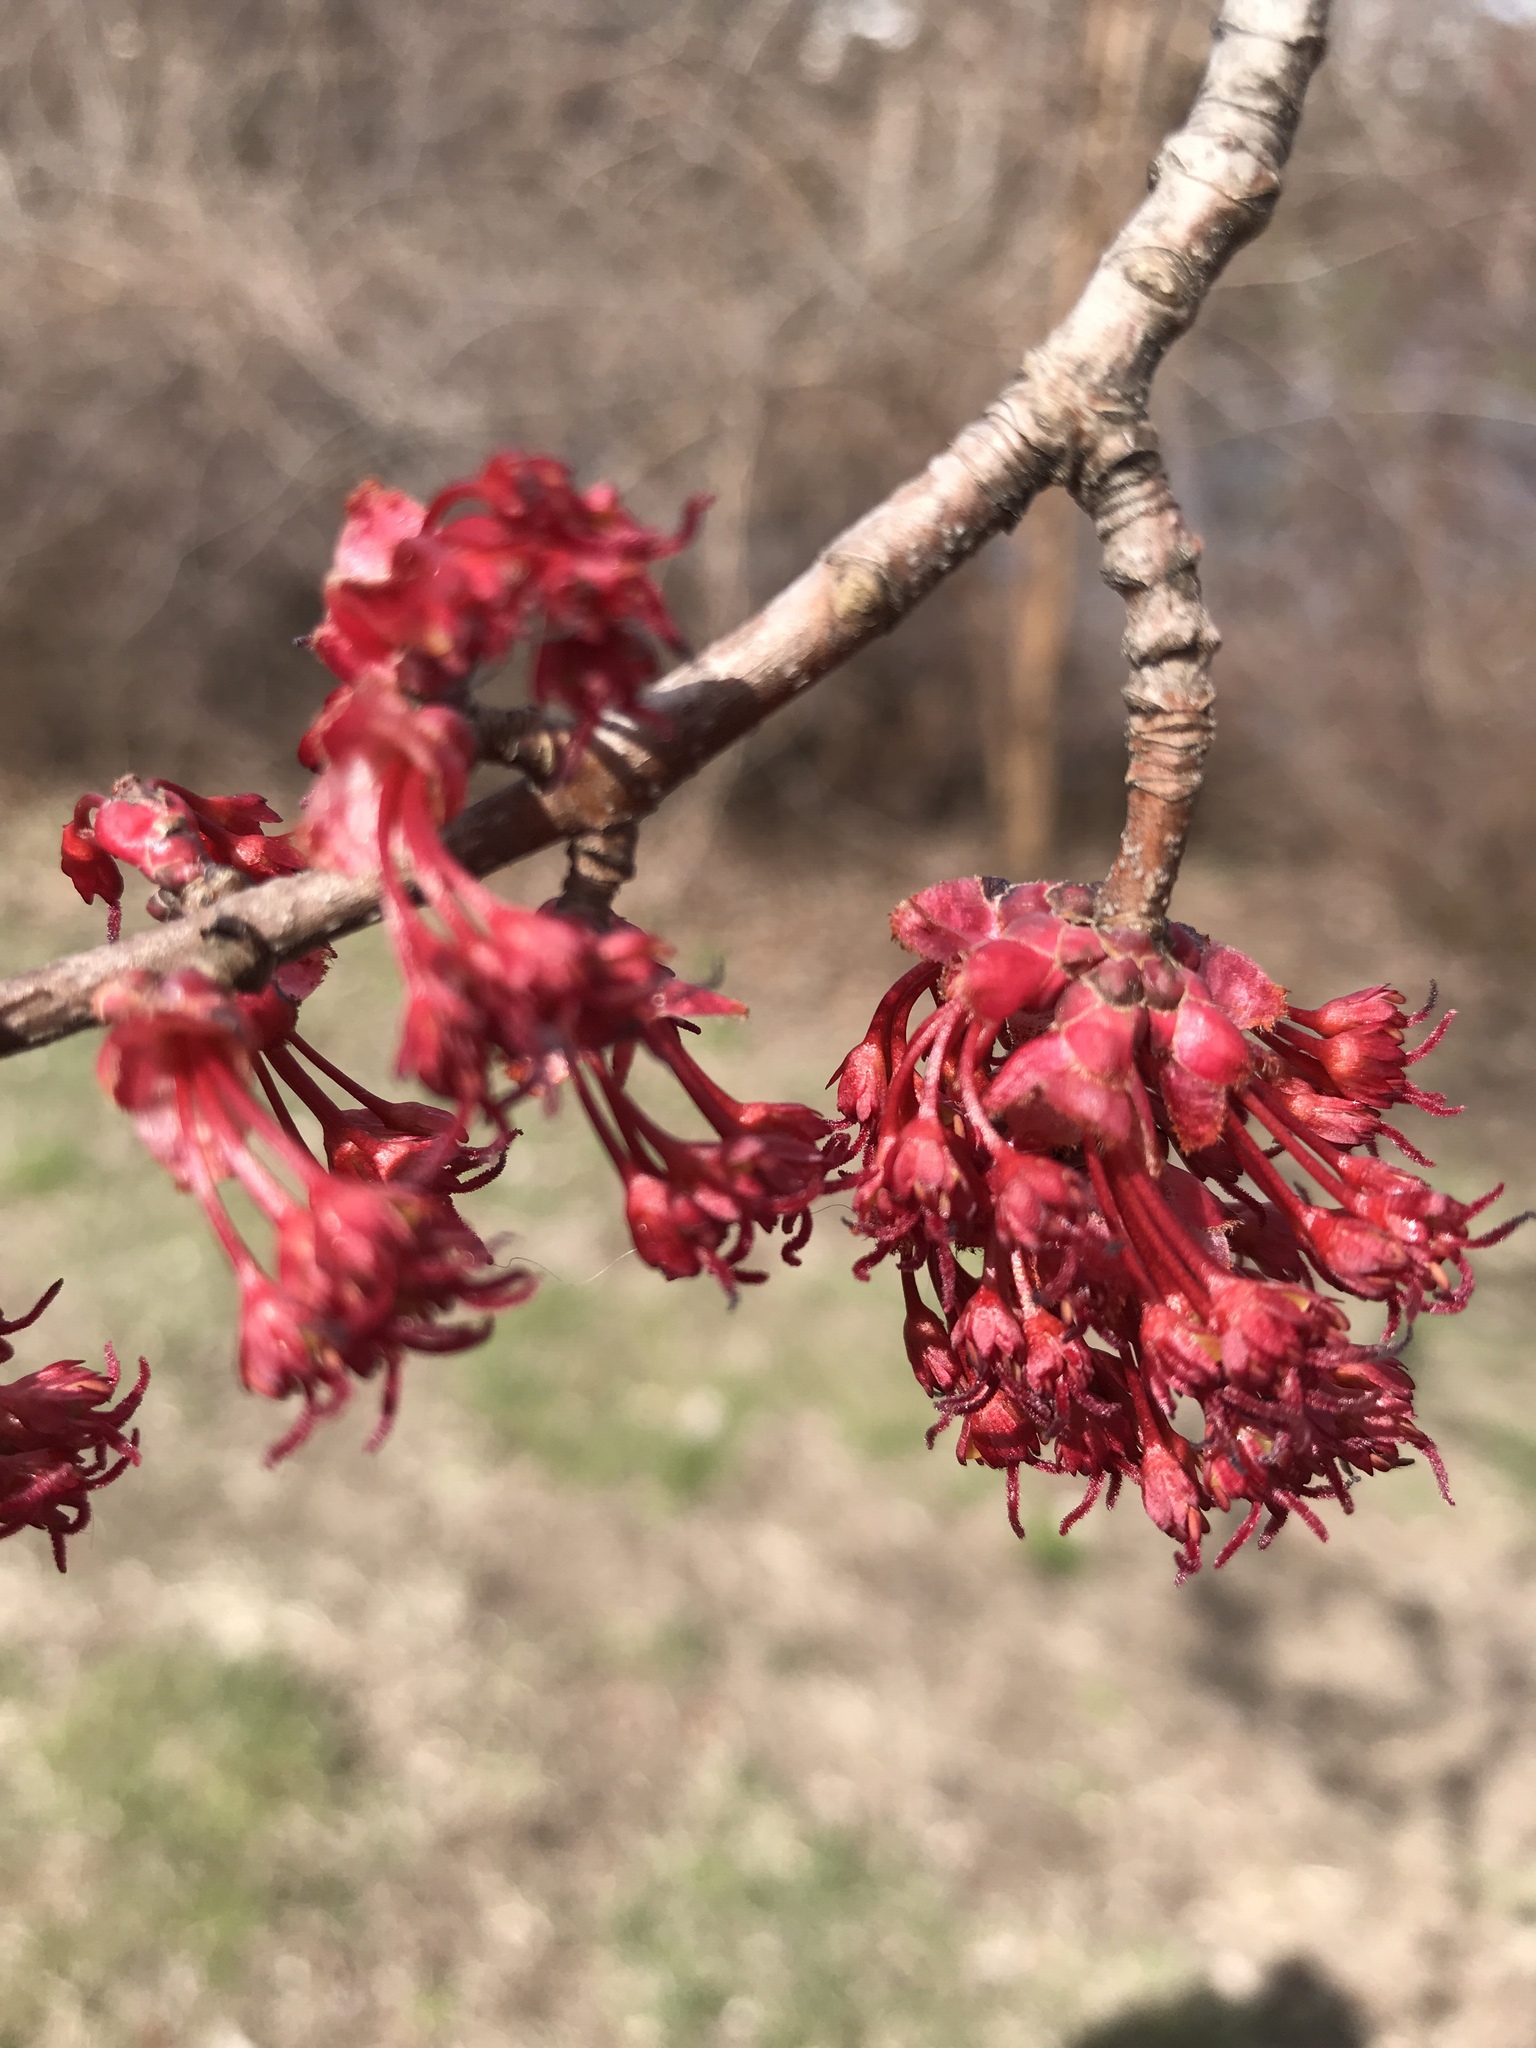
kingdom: Plantae
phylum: Tracheophyta
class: Magnoliopsida
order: Sapindales
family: Sapindaceae
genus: Acer
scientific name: Acer rubrum
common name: Red maple
